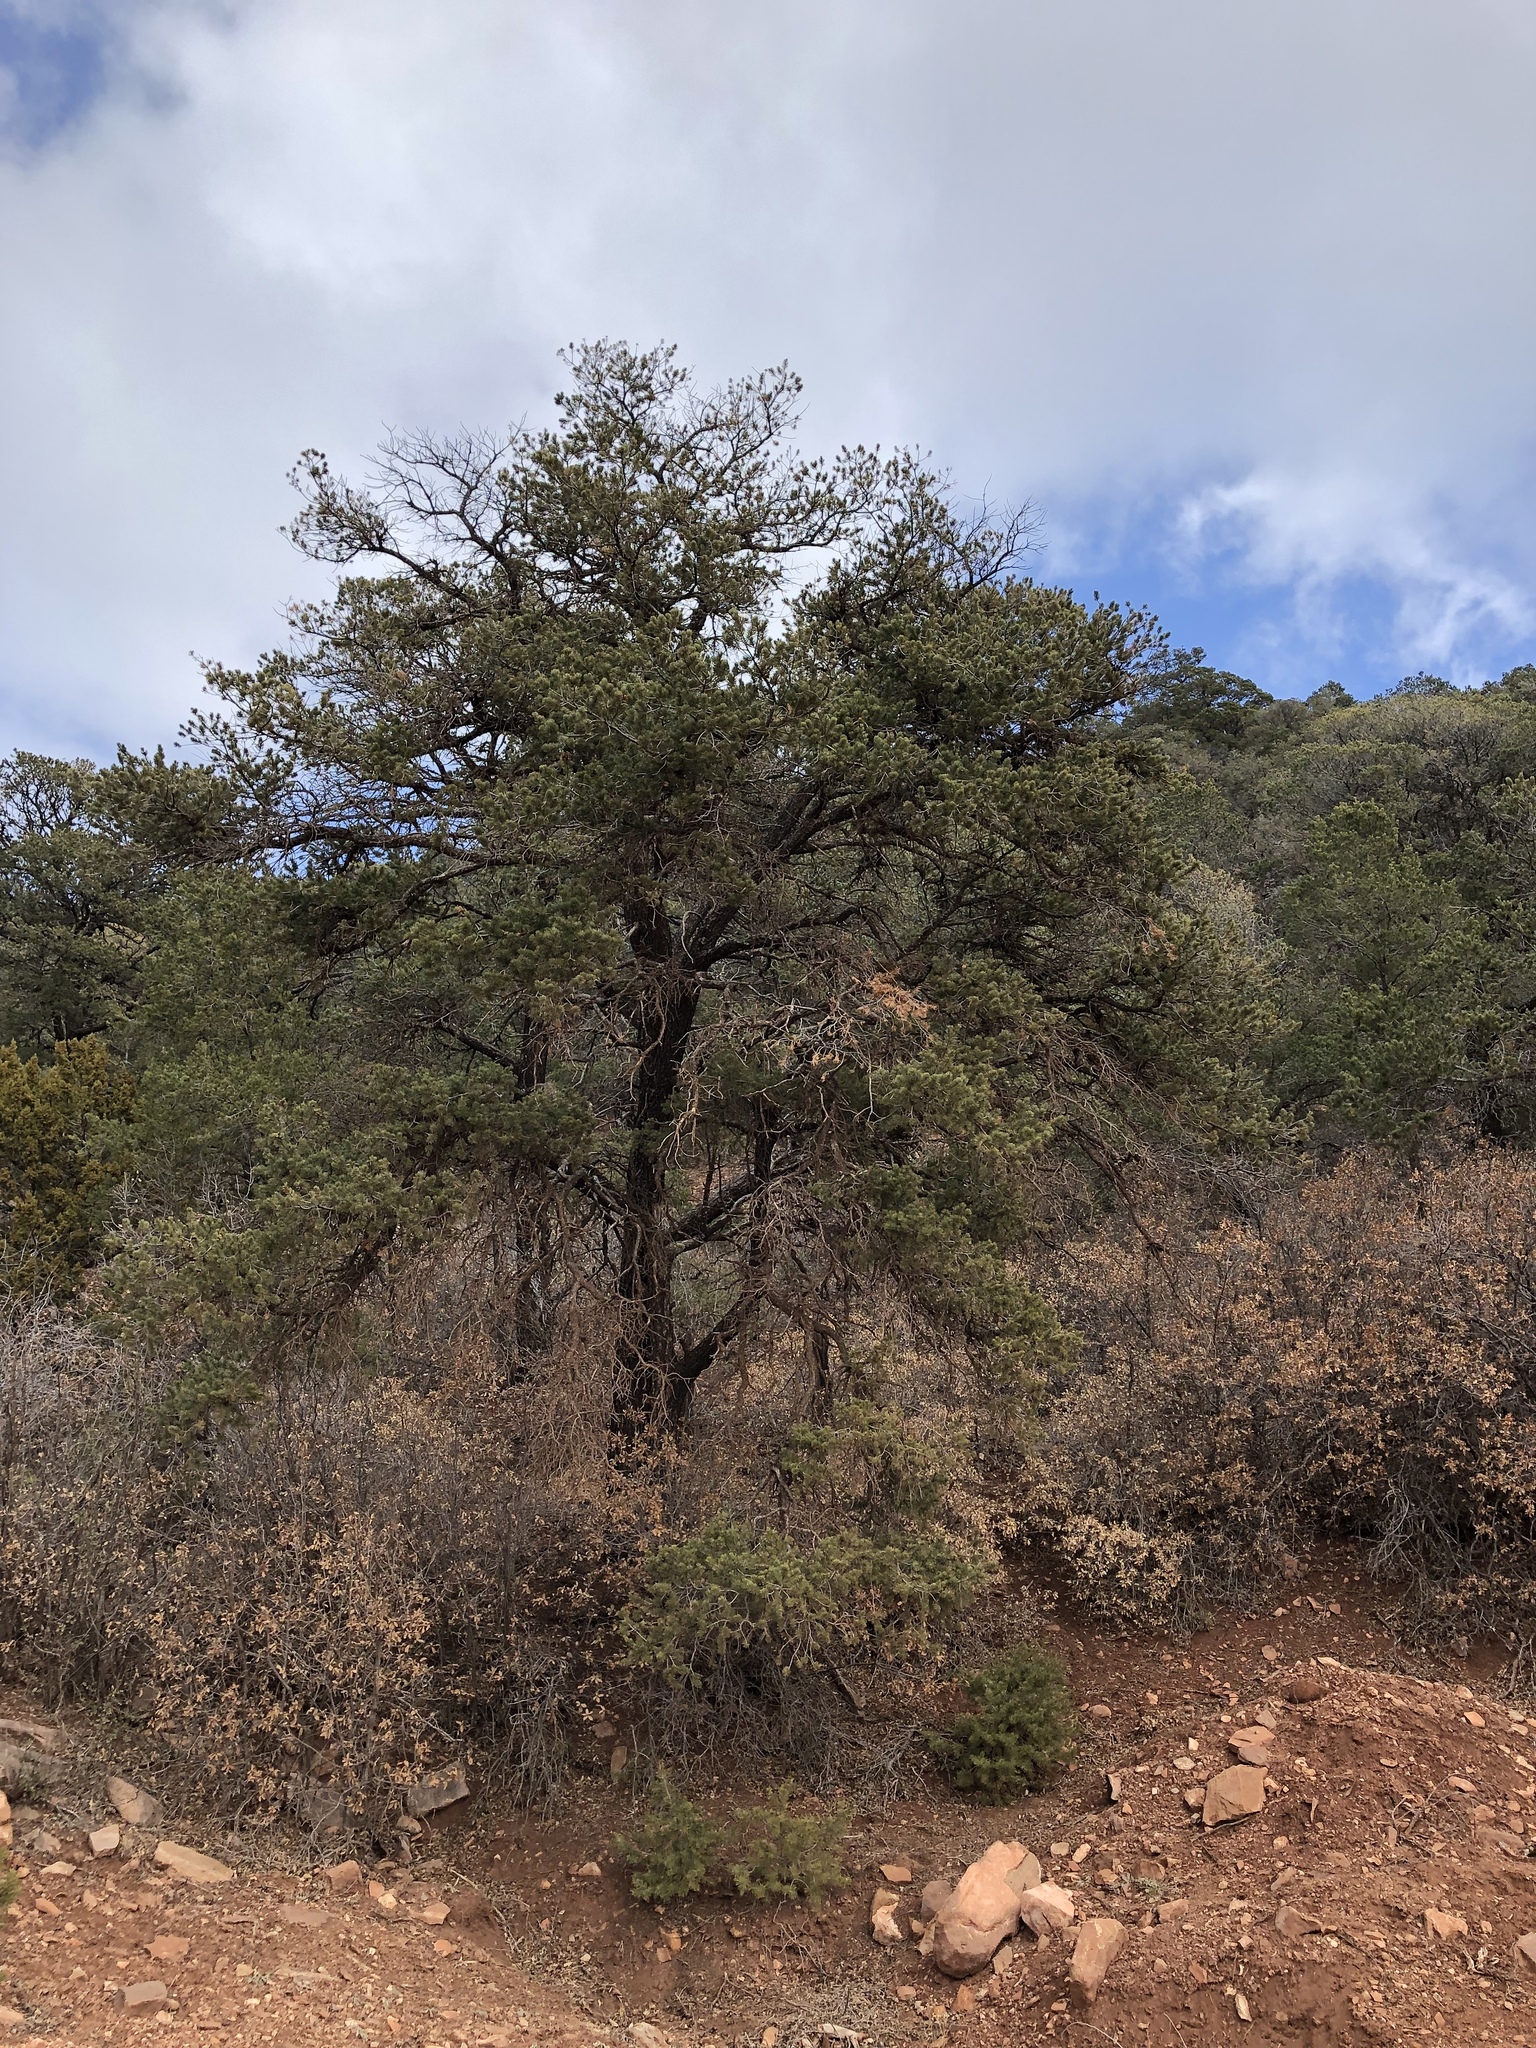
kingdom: Plantae
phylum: Tracheophyta
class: Pinopsida
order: Pinales
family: Pinaceae
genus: Pinus
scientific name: Pinus edulis
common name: Colorado pinyon
